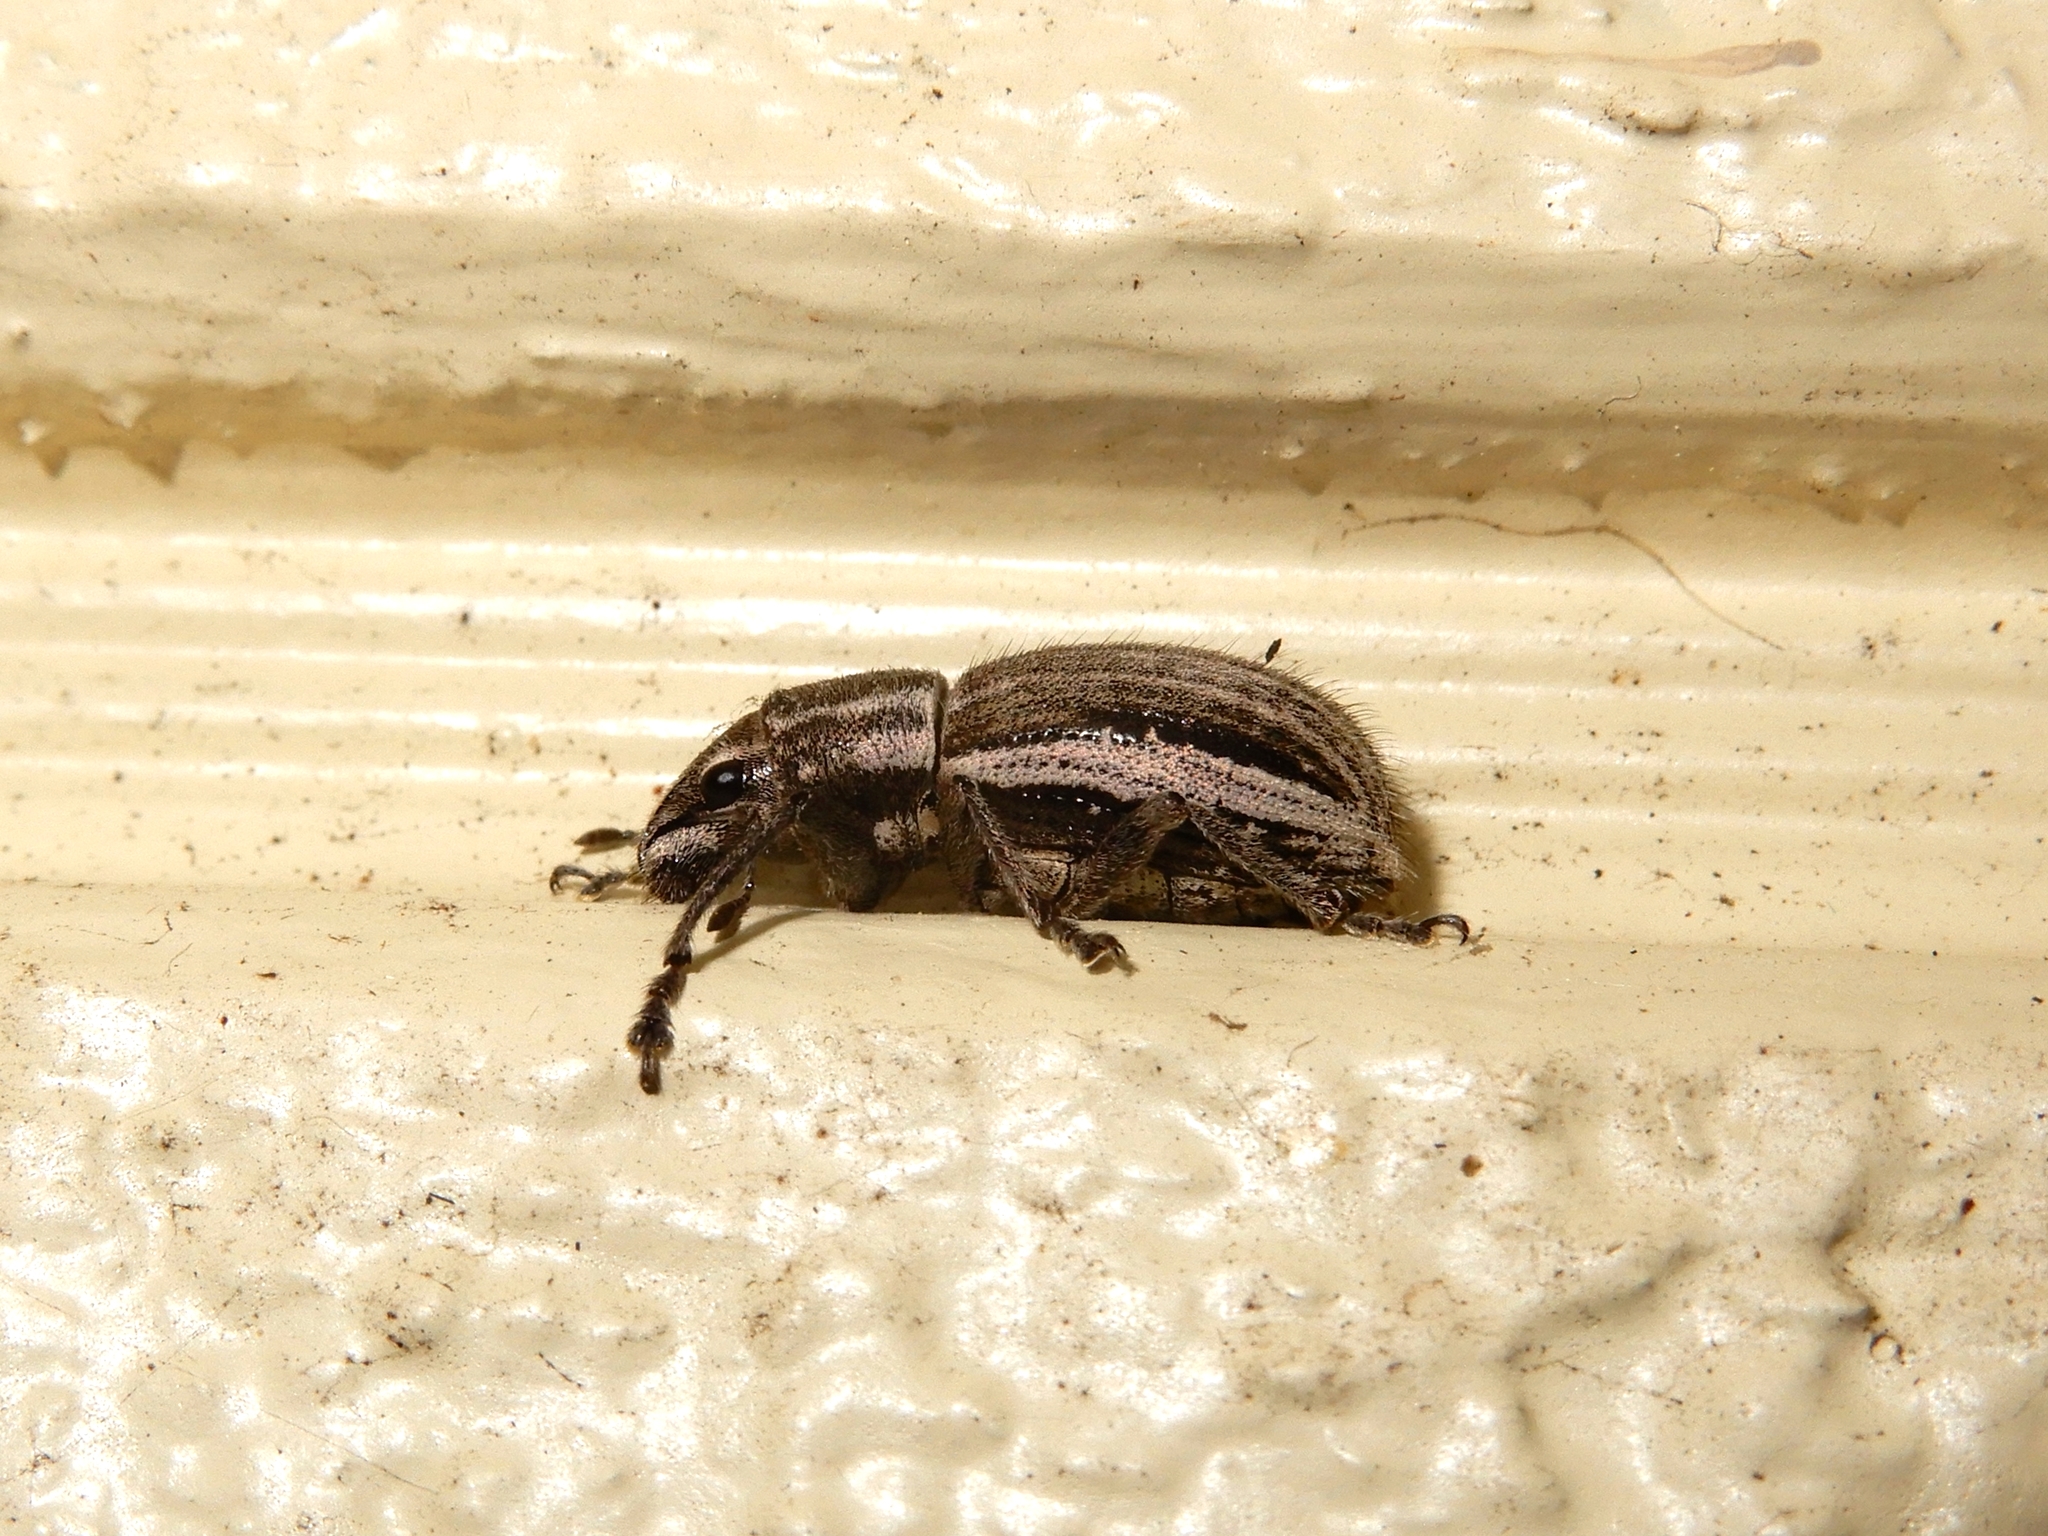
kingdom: Animalia
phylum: Arthropoda
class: Insecta
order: Coleoptera
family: Curculionidae
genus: Naupactus
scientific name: Naupactus leucoloma
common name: Whitefringed beetle
